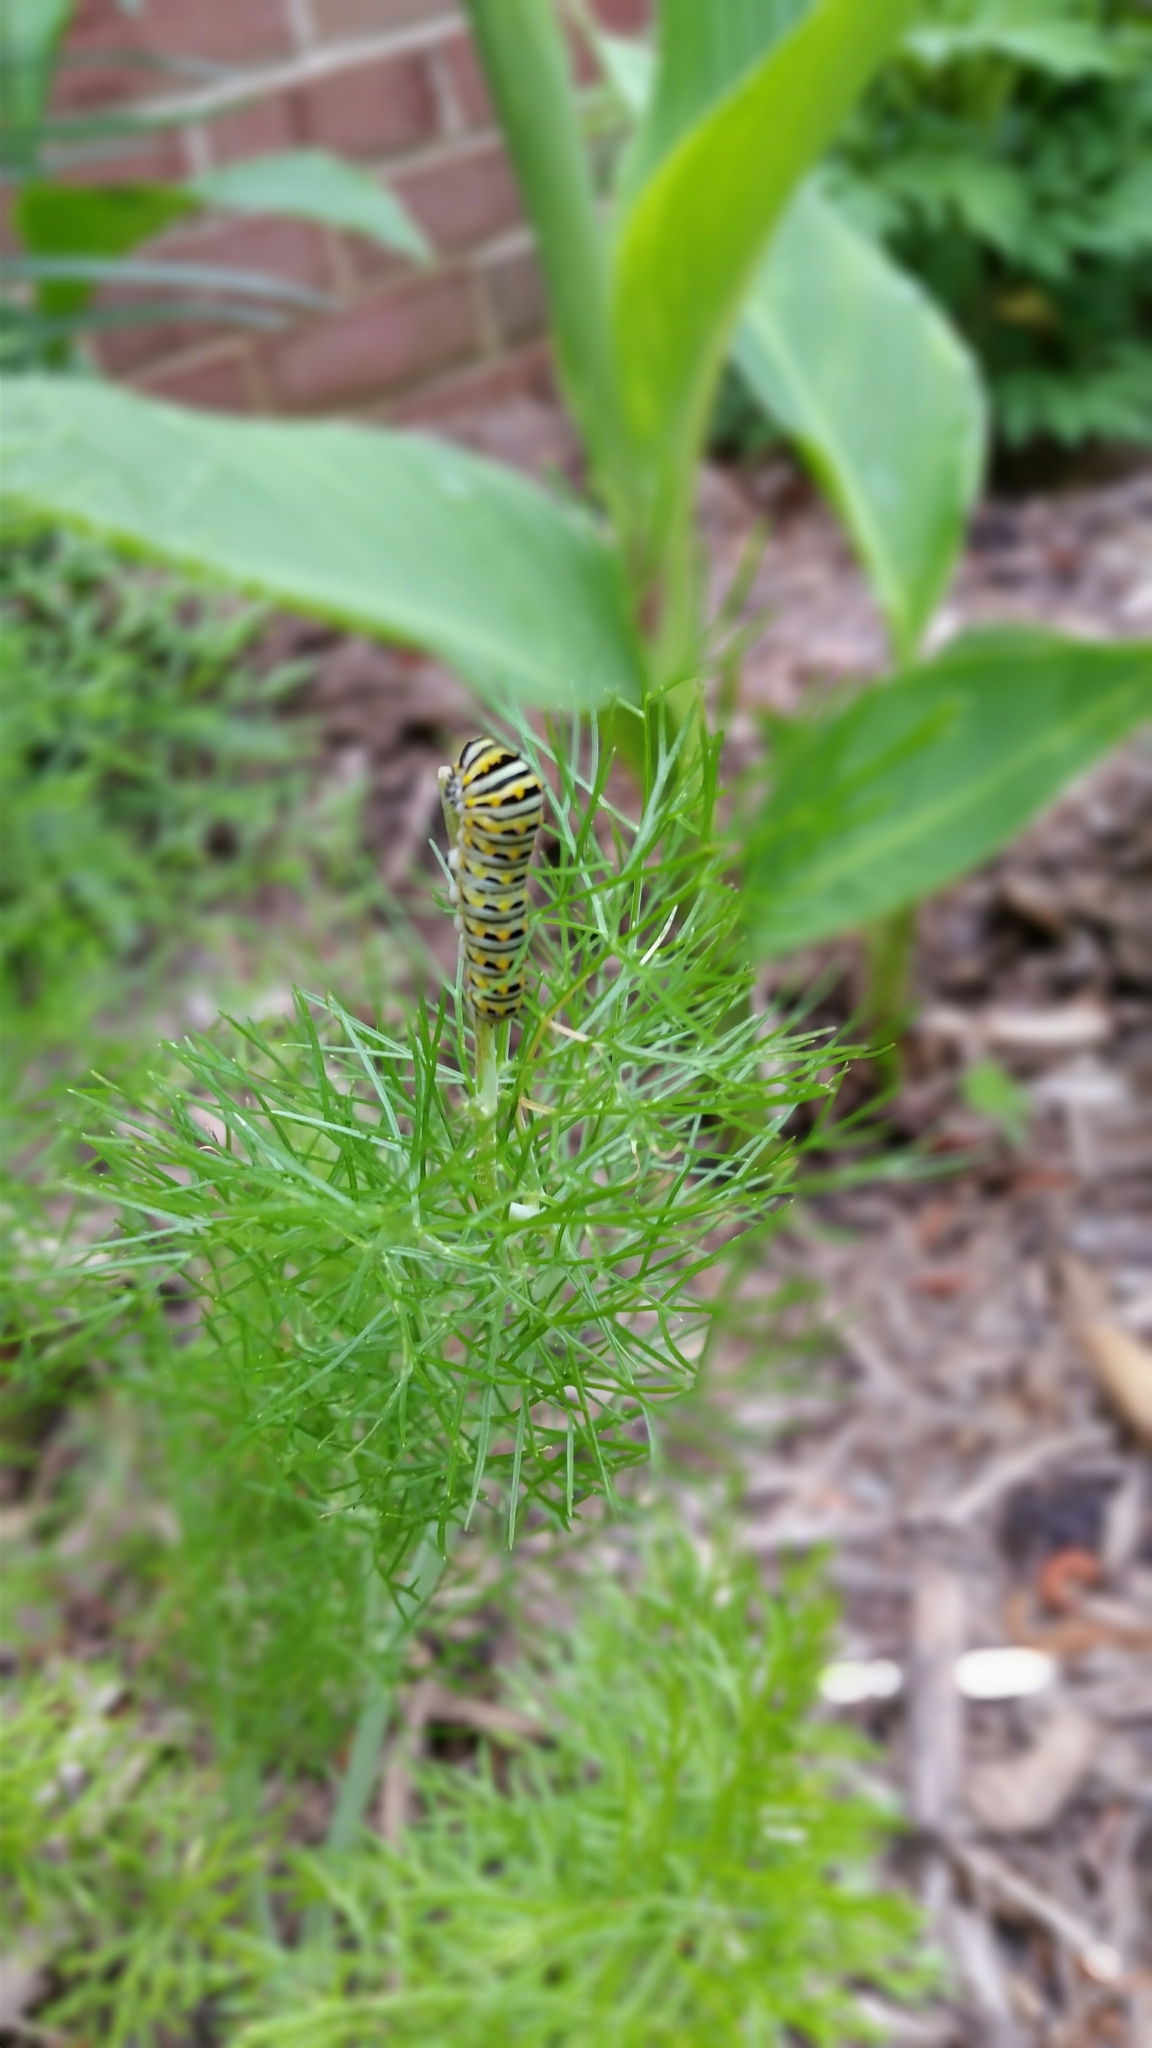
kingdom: Animalia
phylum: Arthropoda
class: Insecta
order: Lepidoptera
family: Papilionidae
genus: Papilio
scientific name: Papilio polyxenes
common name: Black swallowtail
